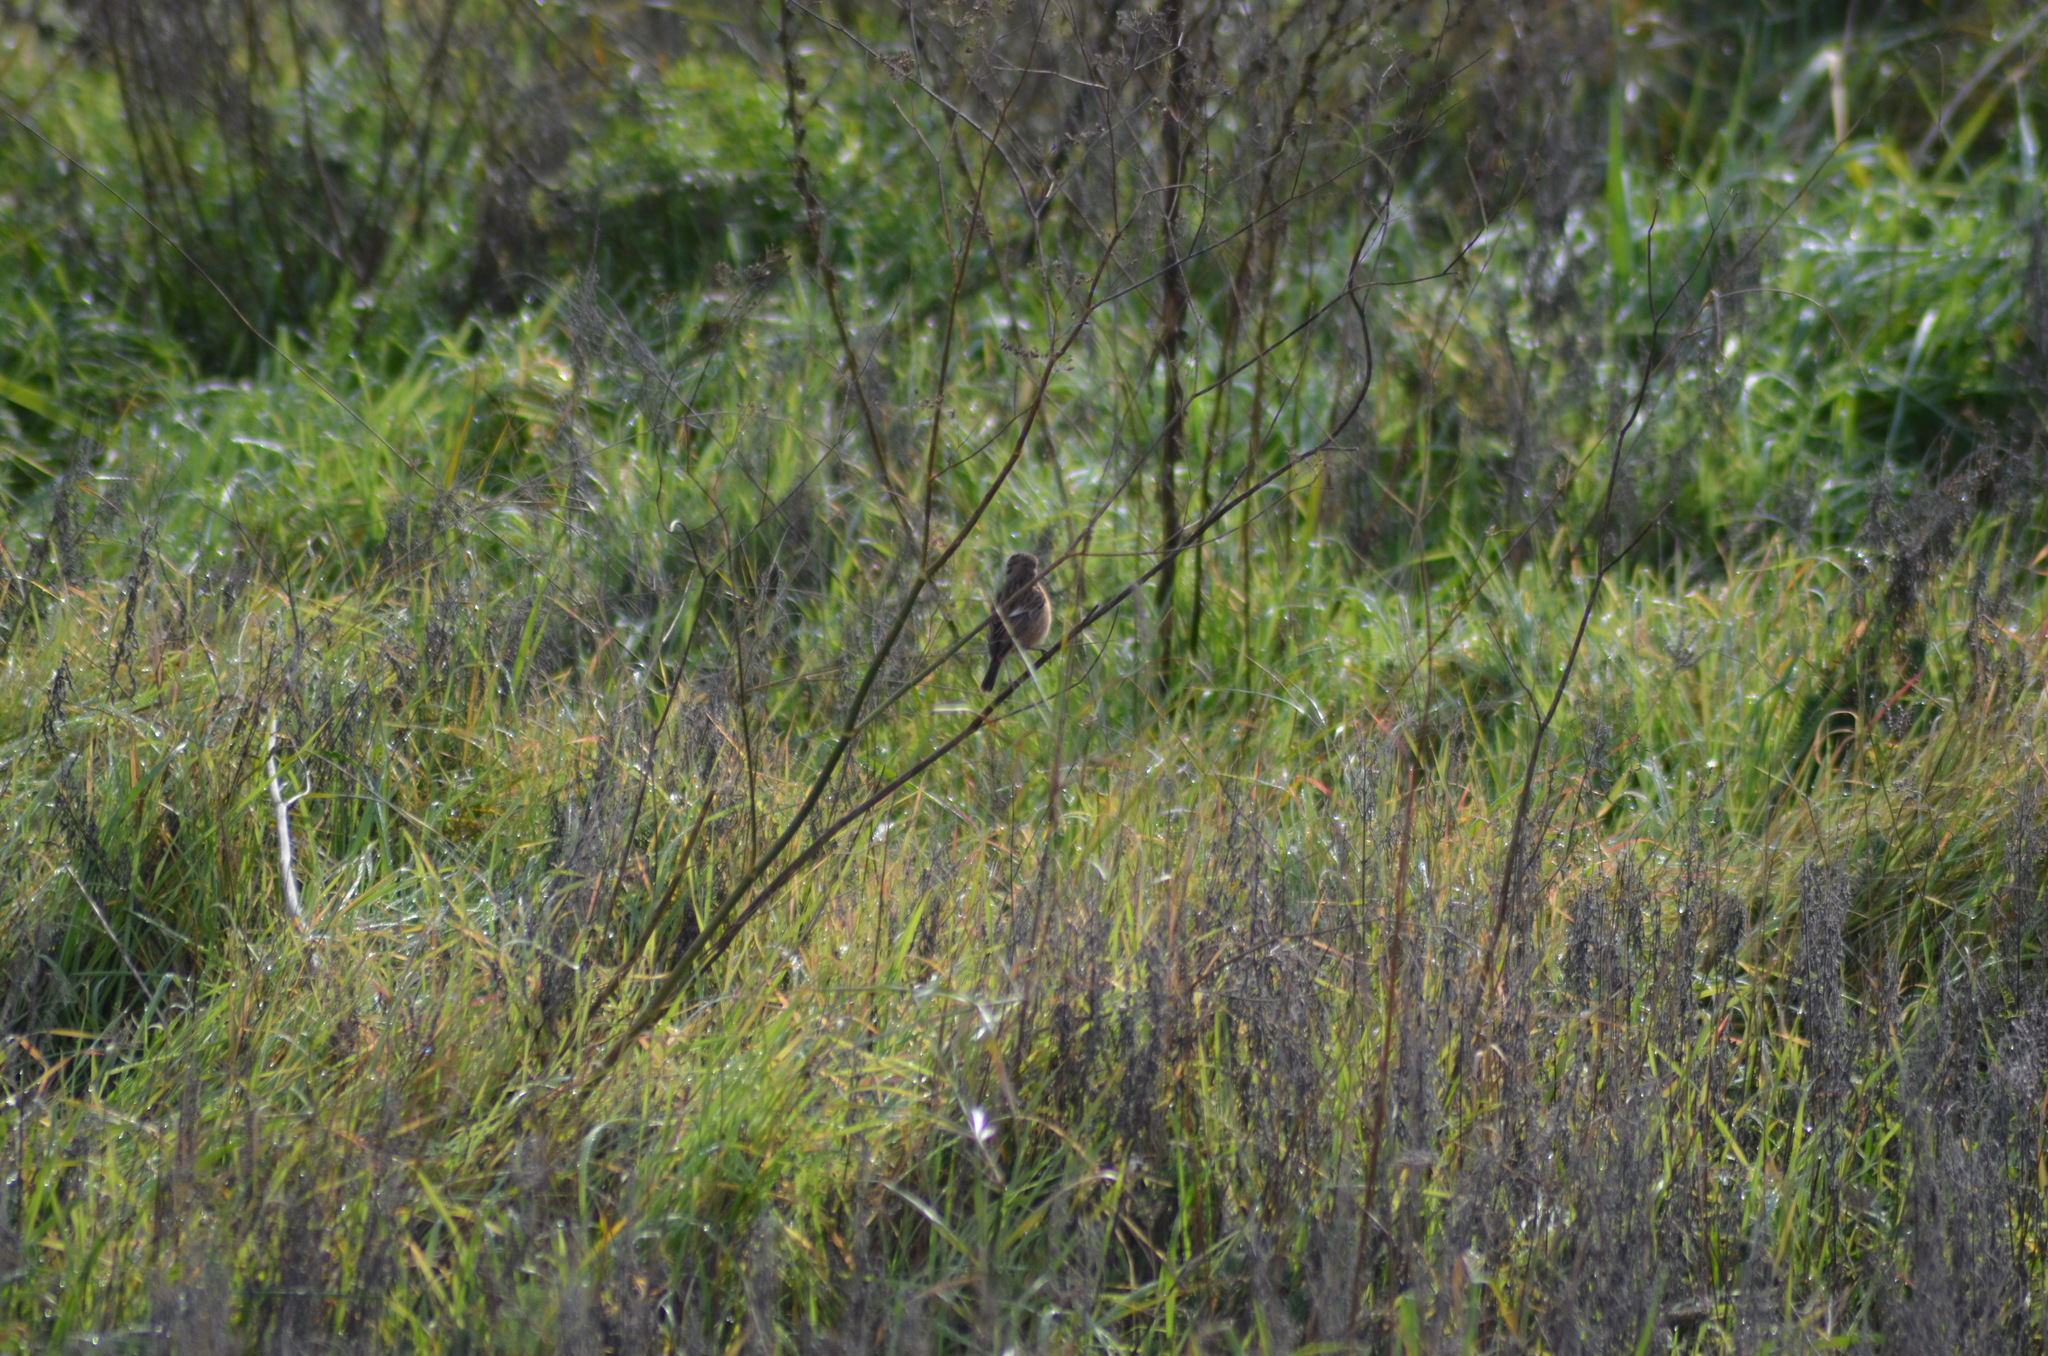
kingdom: Animalia
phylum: Chordata
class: Aves
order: Passeriformes
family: Muscicapidae
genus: Saxicola
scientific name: Saxicola rubicola
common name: European stonechat
